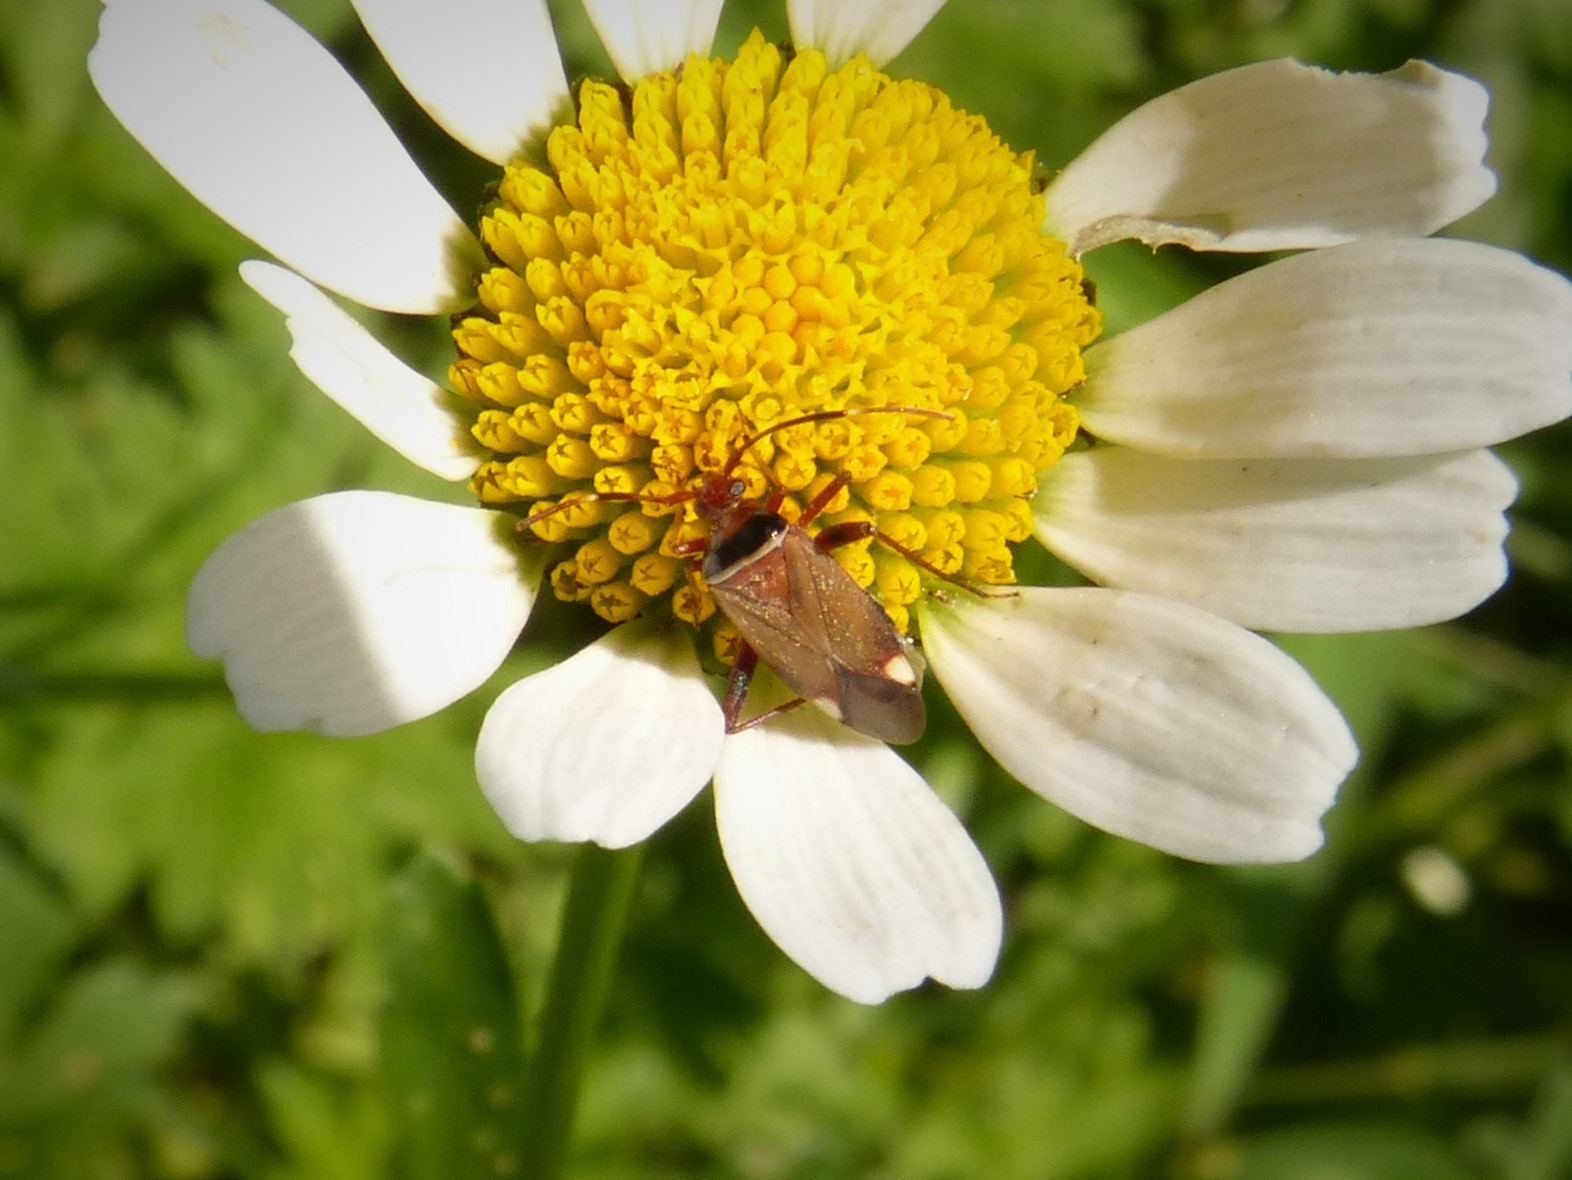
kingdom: Animalia
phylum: Arthropoda
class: Insecta
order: Hemiptera
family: Miridae
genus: Adelphocoris
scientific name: Adelphocoris vandalicus
